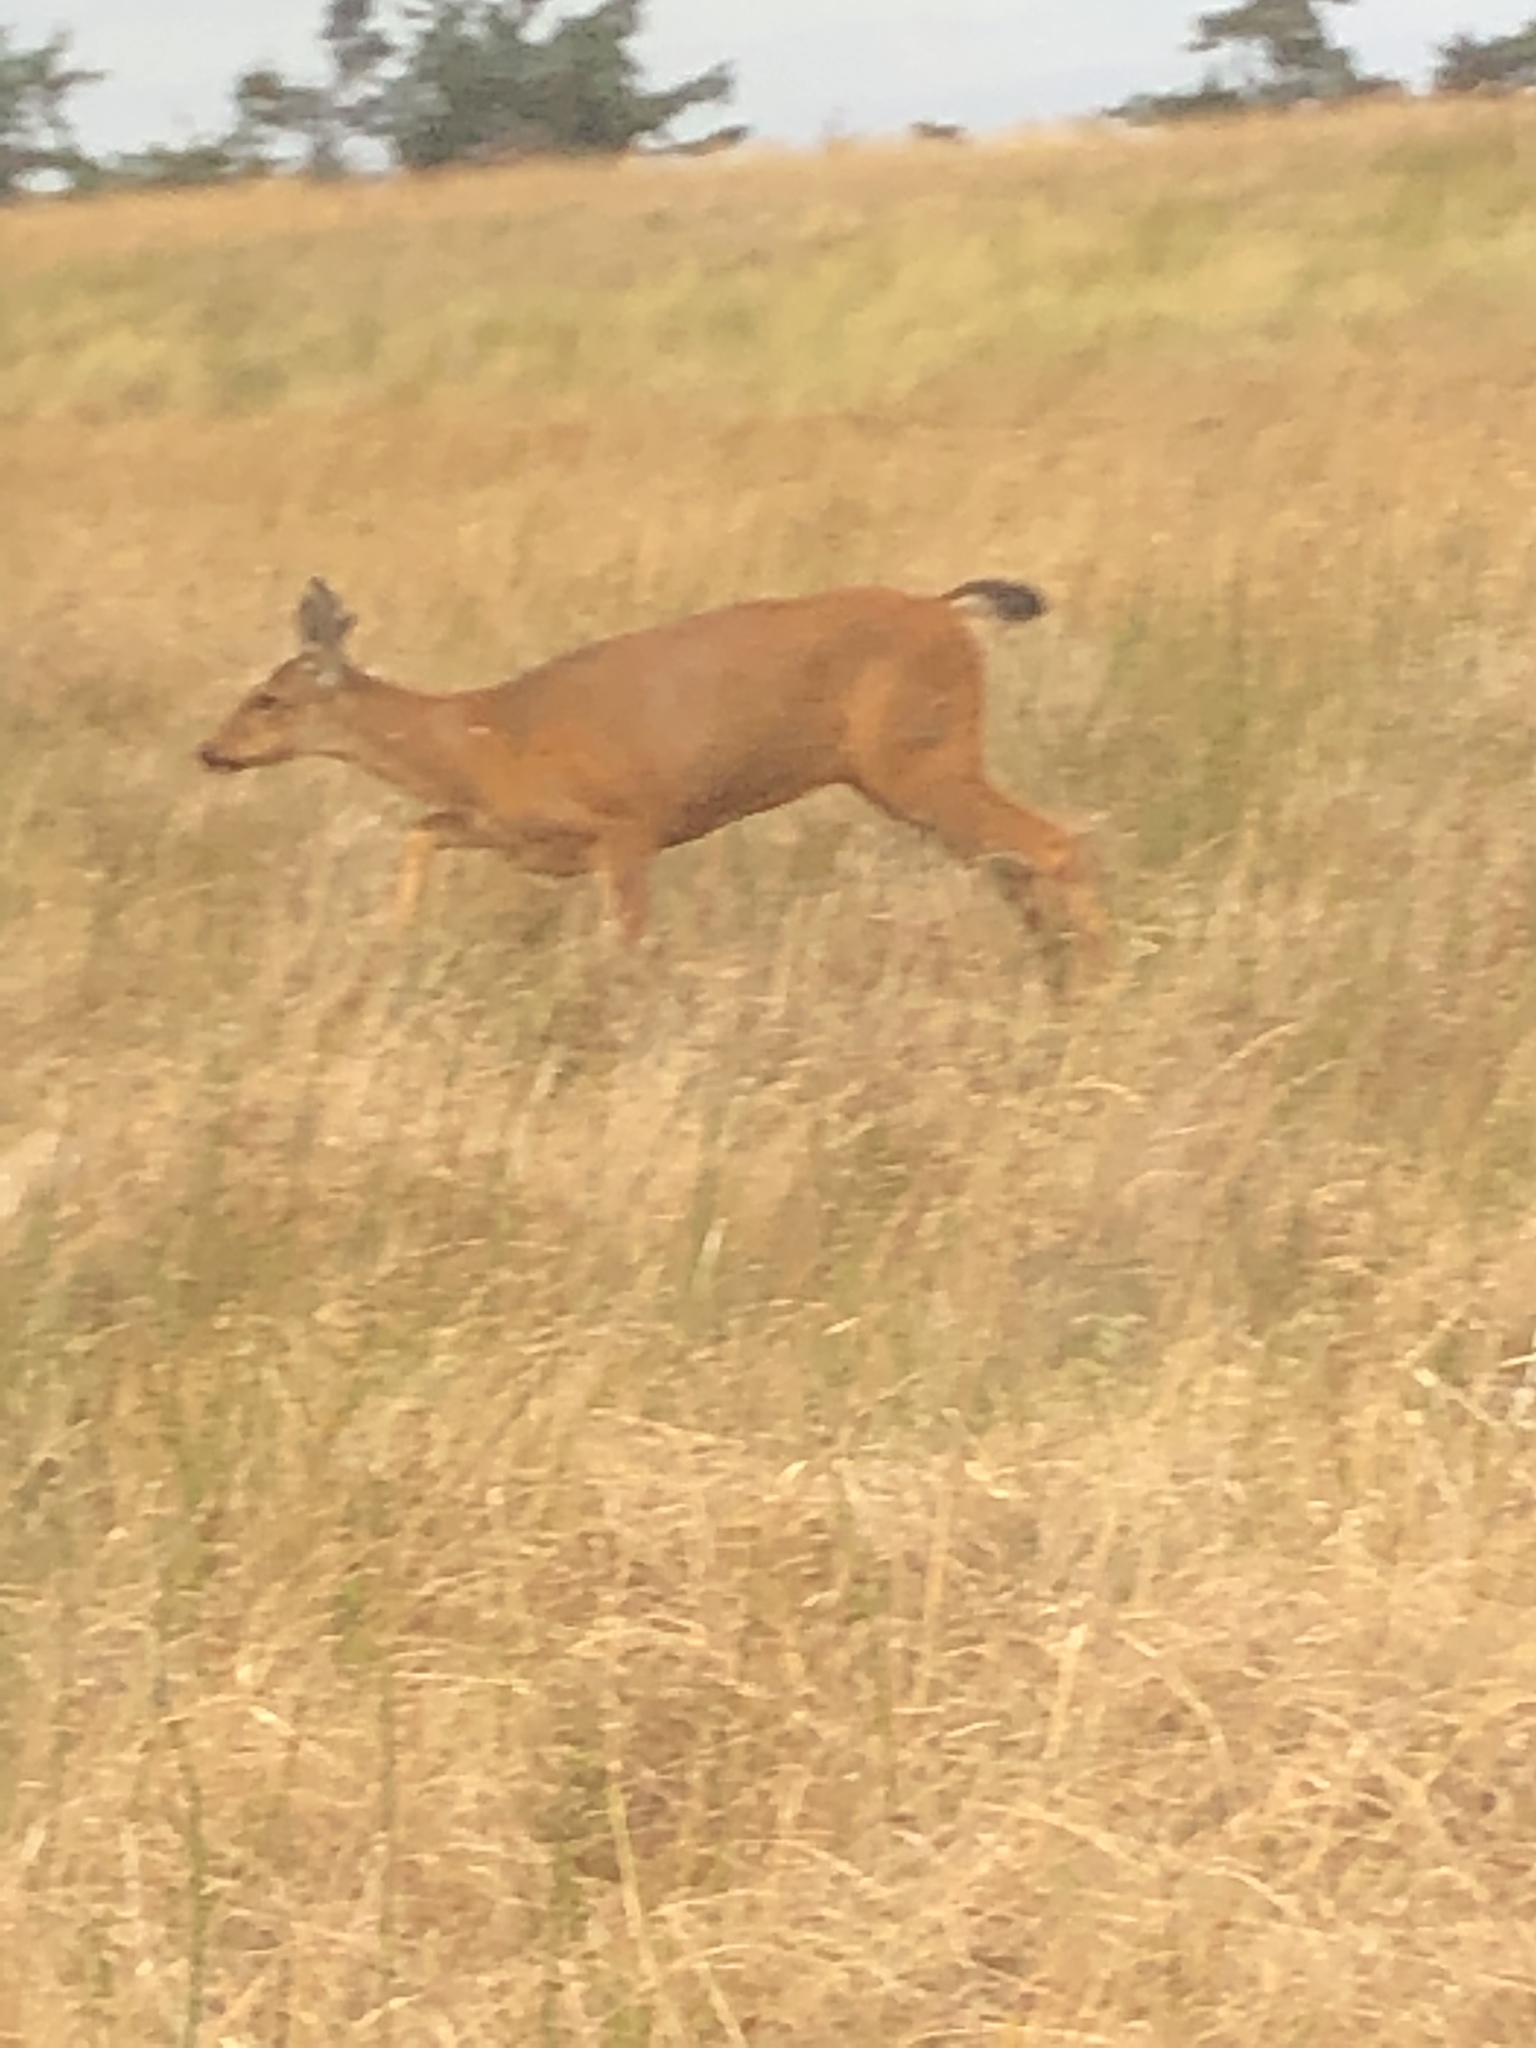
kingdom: Animalia
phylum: Chordata
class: Mammalia
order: Artiodactyla
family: Cervidae
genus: Odocoileus
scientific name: Odocoileus hemionus
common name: Mule deer
